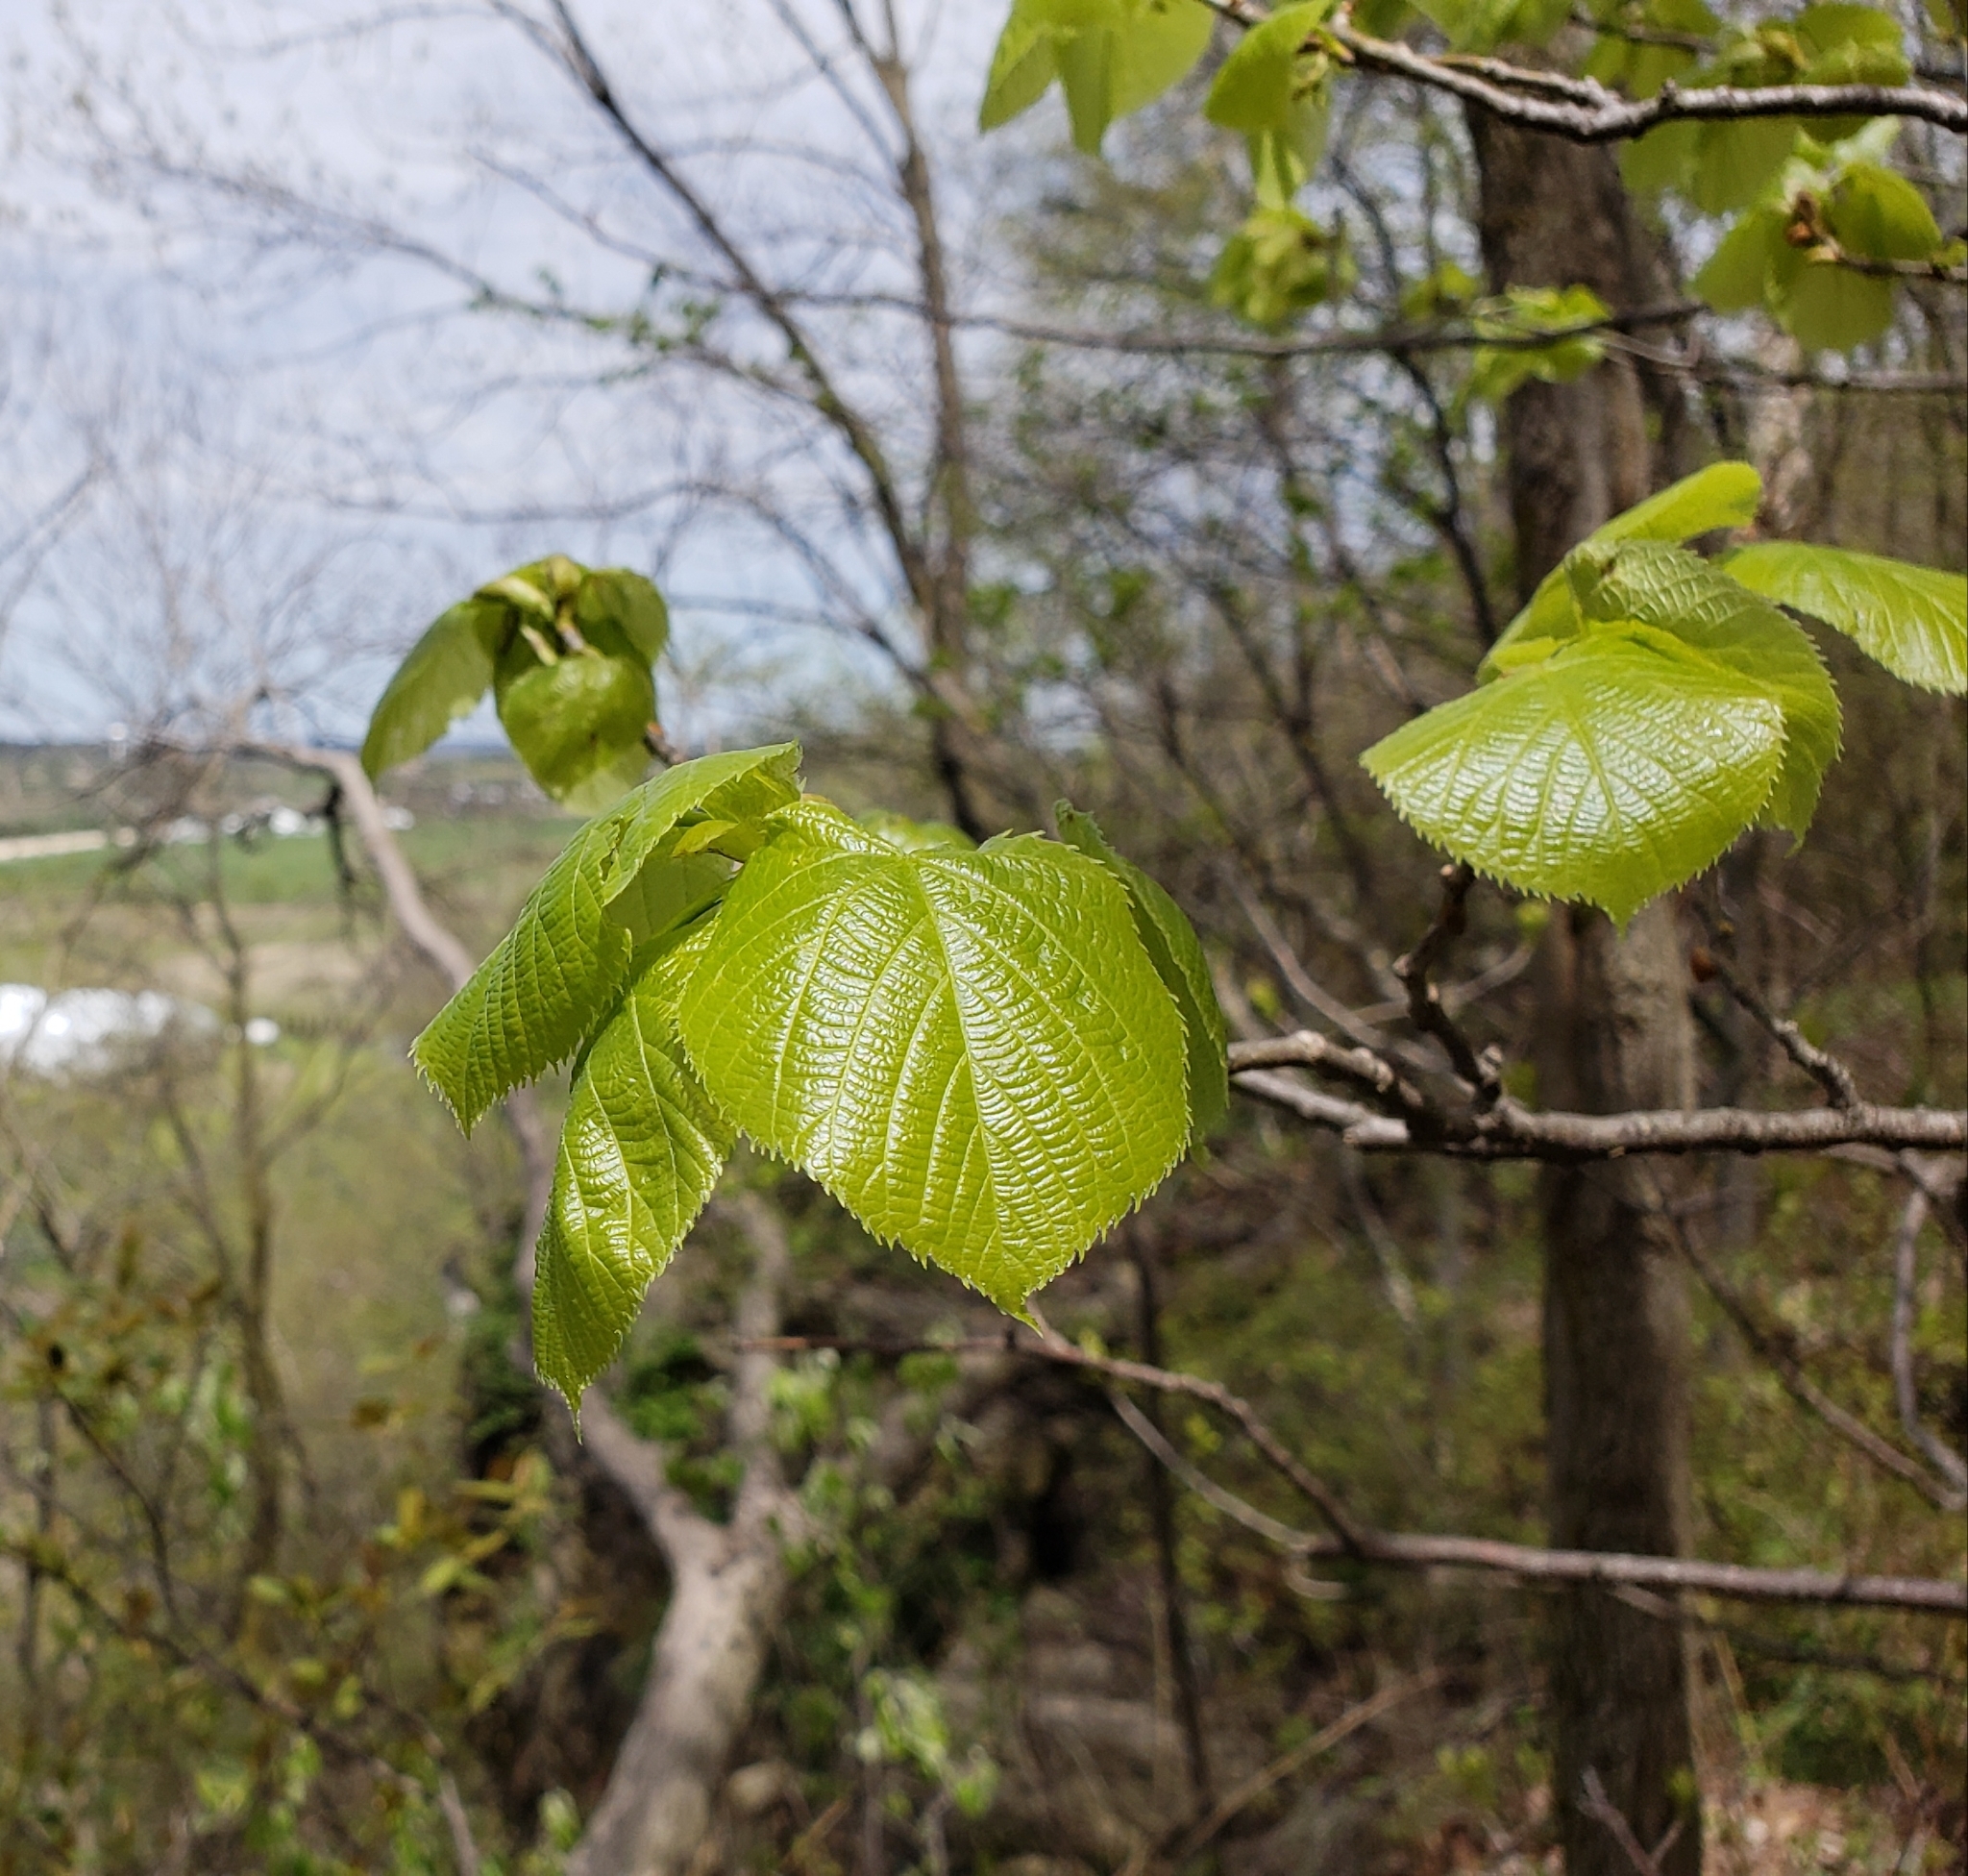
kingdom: Plantae
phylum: Tracheophyta
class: Magnoliopsida
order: Malvales
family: Malvaceae
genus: Tilia
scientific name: Tilia americana
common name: Basswood
